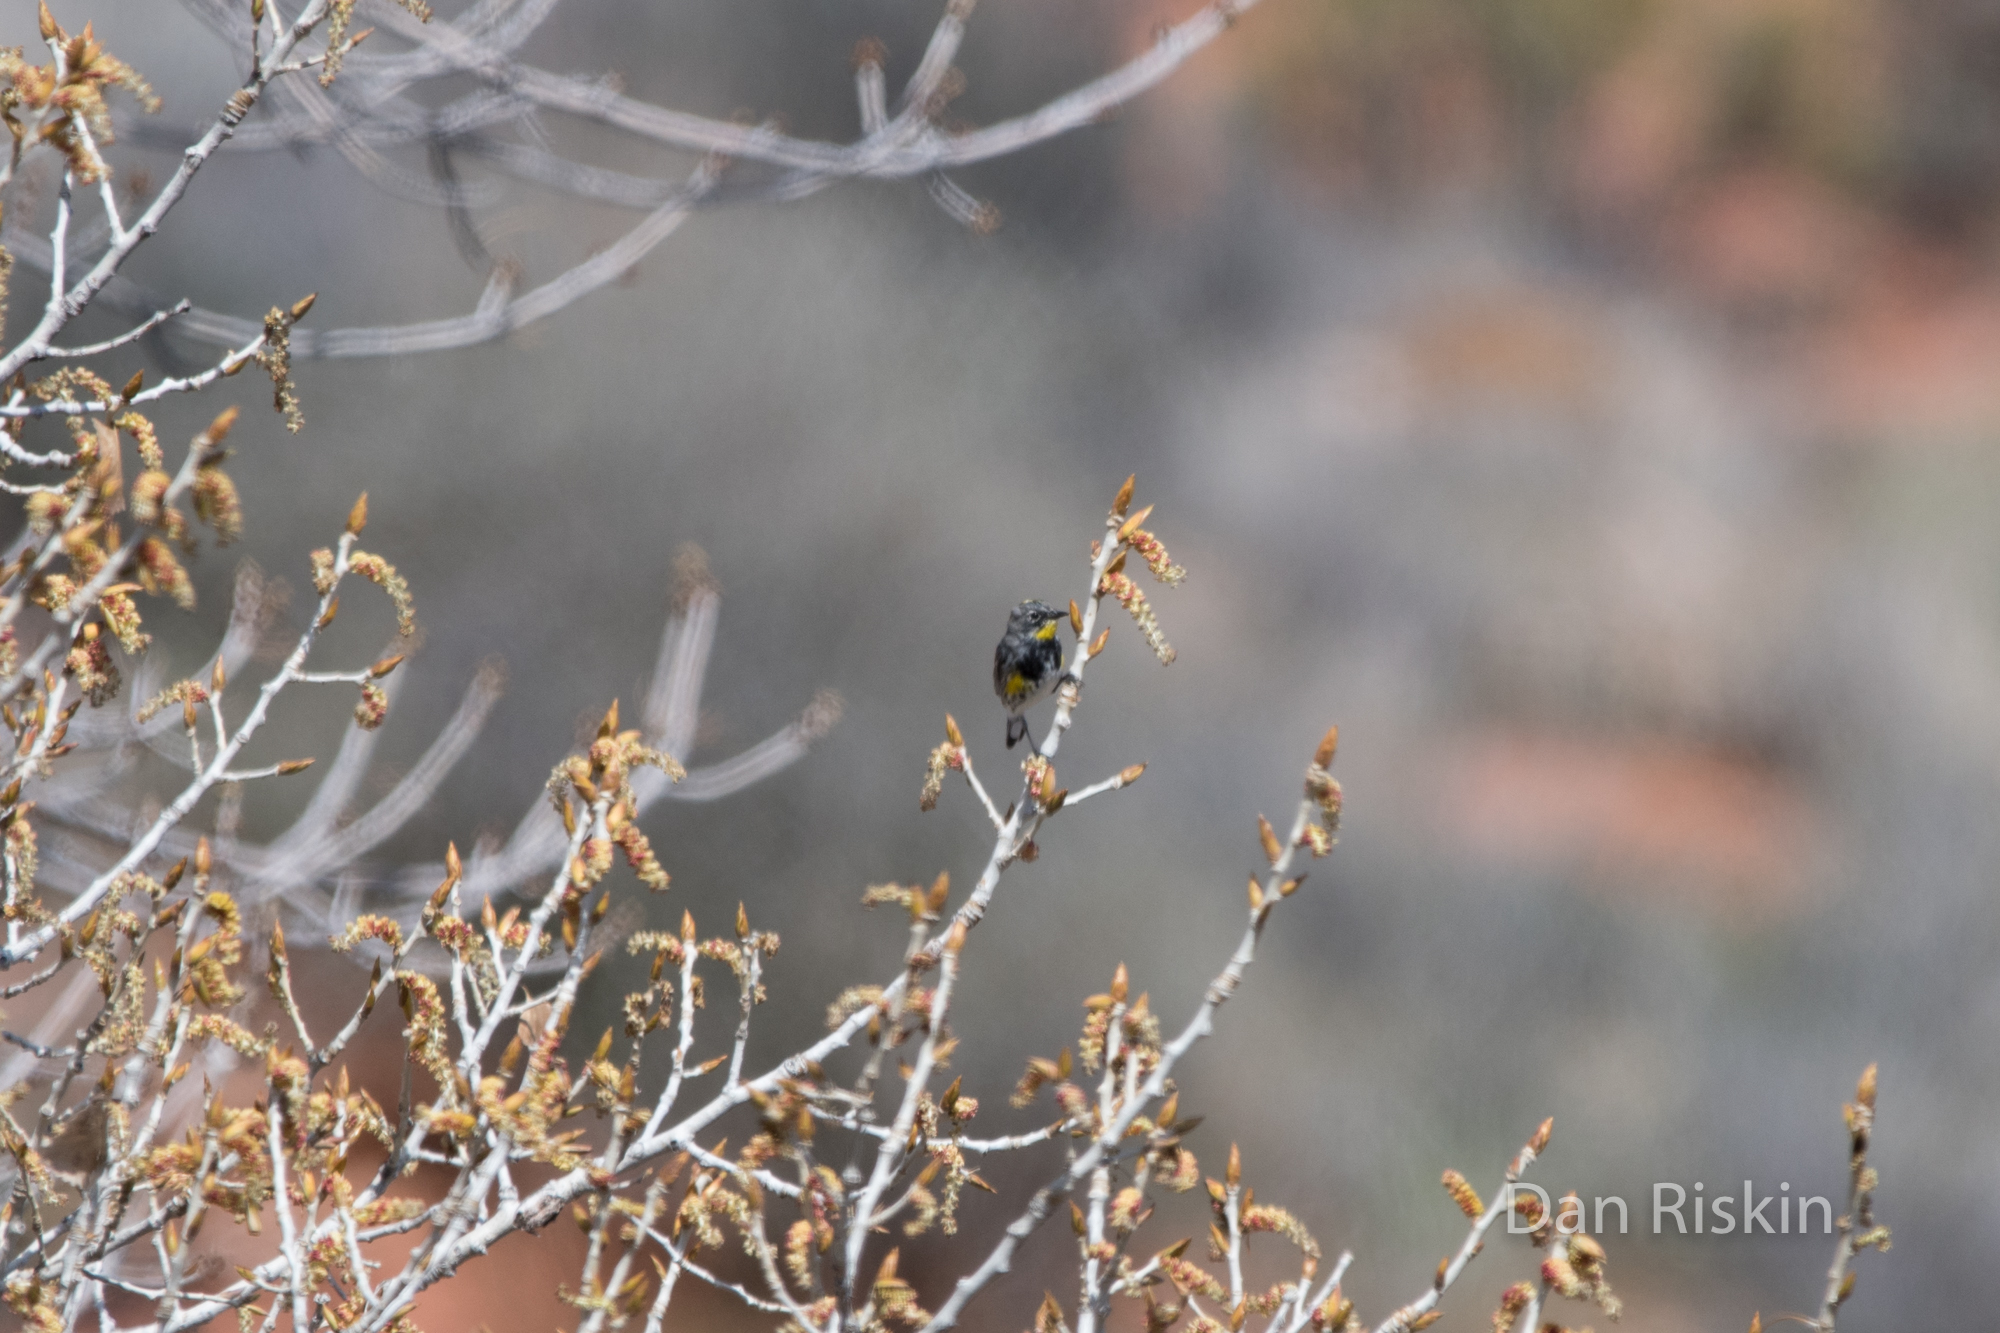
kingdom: Animalia
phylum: Chordata
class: Aves
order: Passeriformes
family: Parulidae
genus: Setophaga
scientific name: Setophaga auduboni
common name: Audubon's warbler
